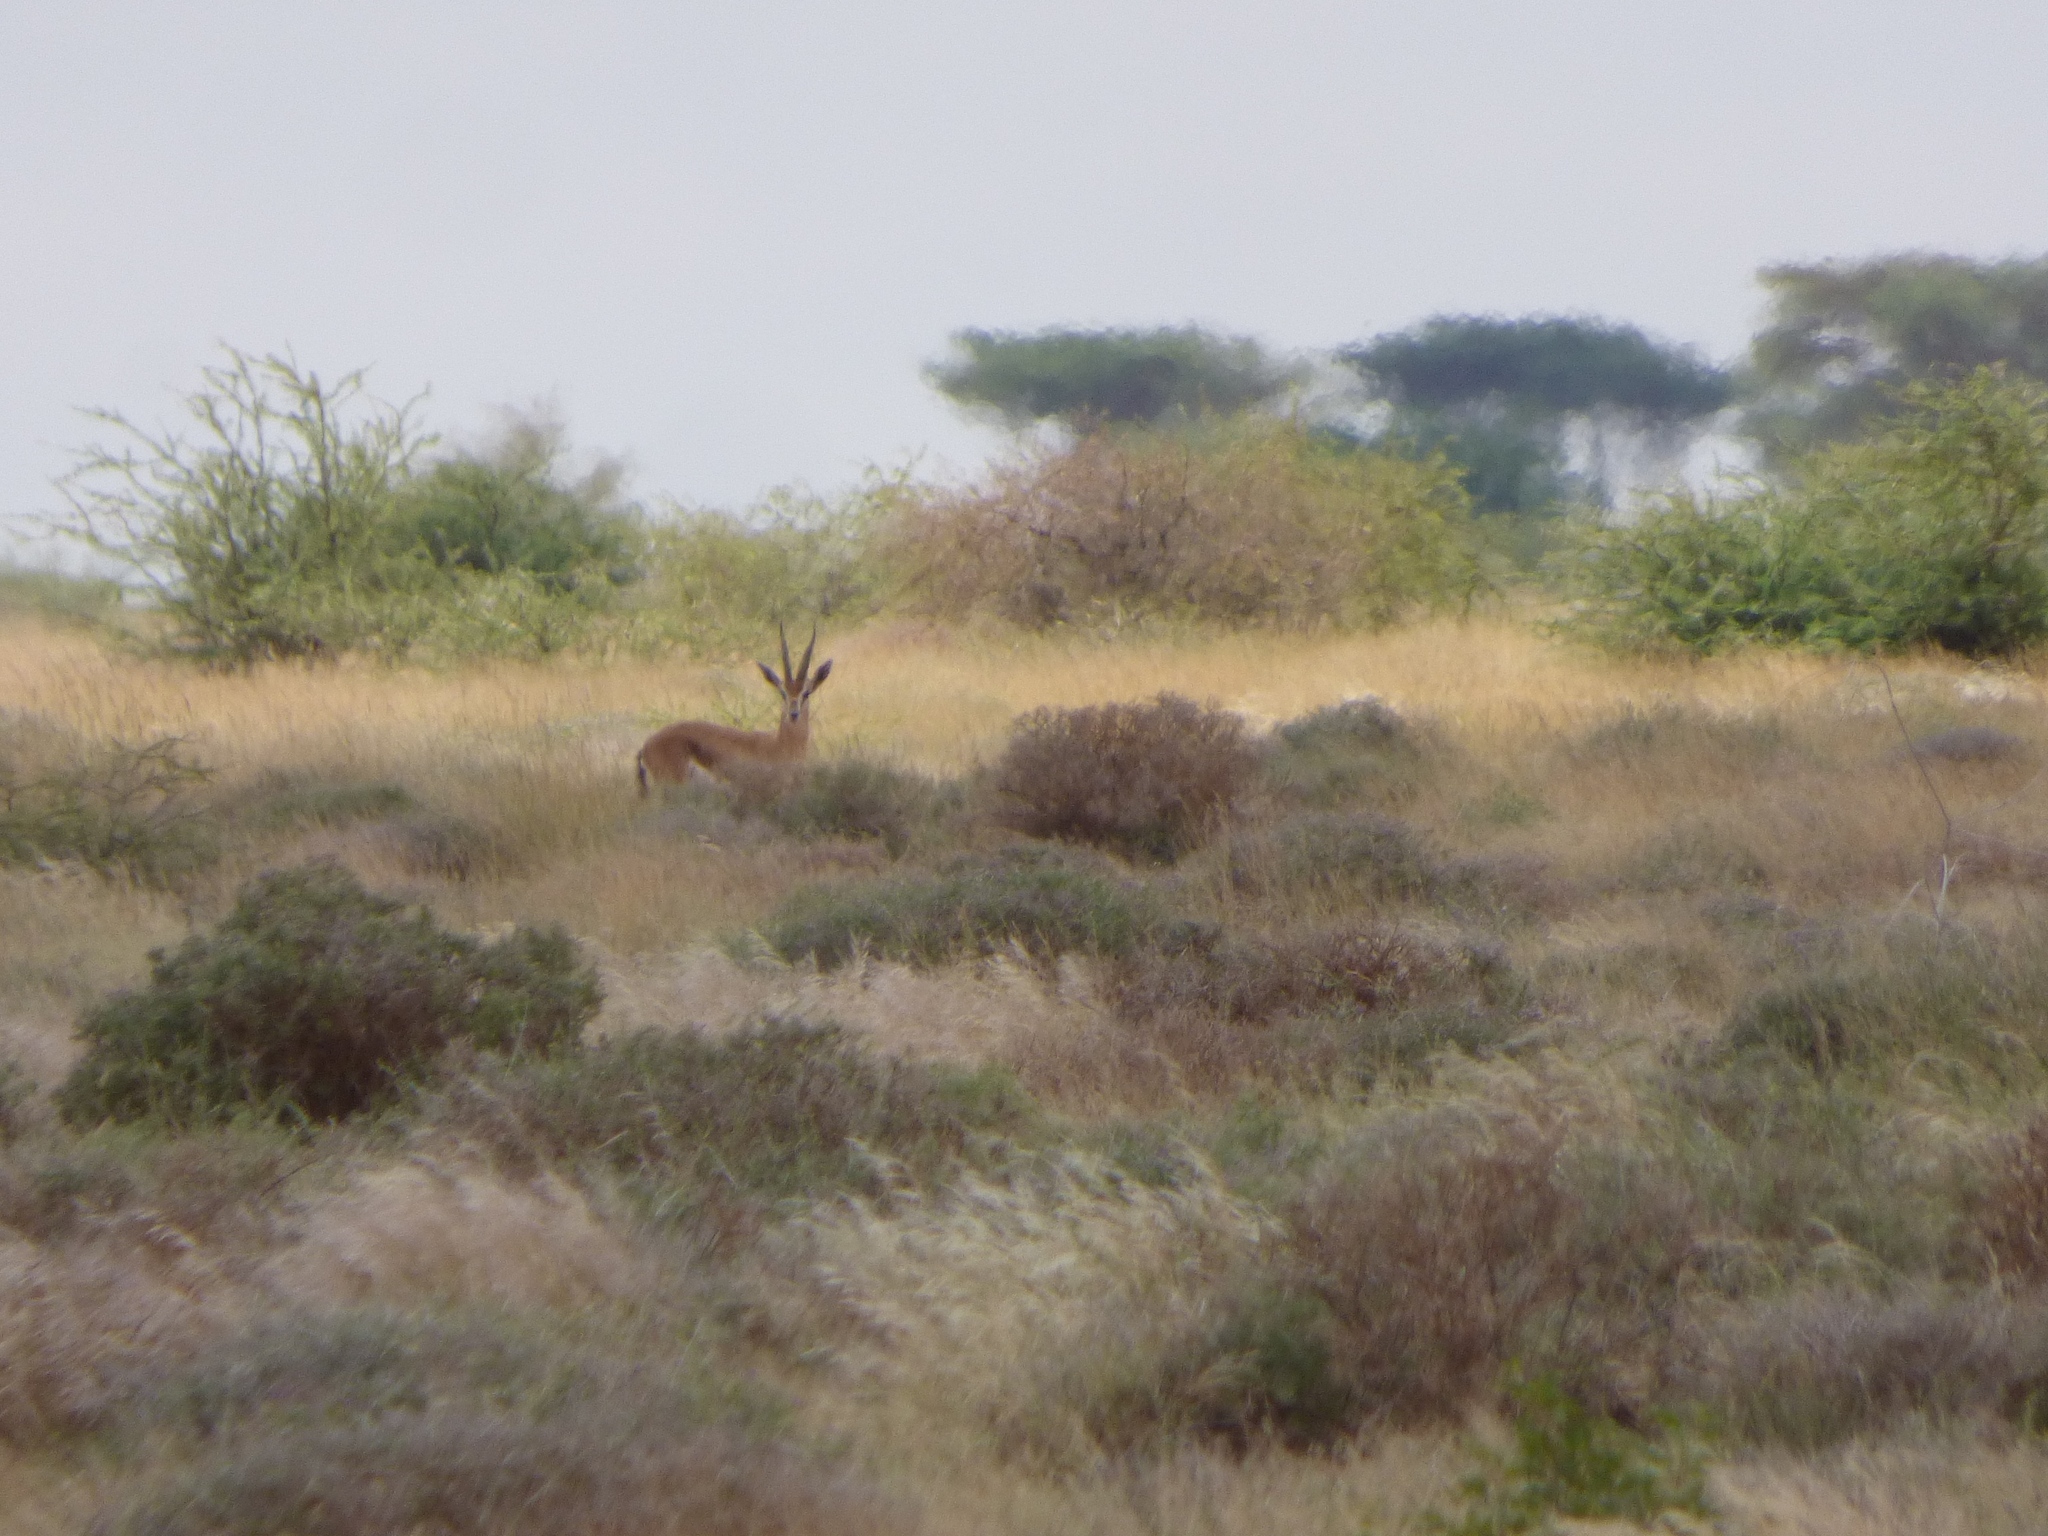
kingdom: Animalia
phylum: Chordata
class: Mammalia
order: Artiodactyla
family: Bovidae
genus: Gazella
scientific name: Gazella spekei
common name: Speke's gazelle
